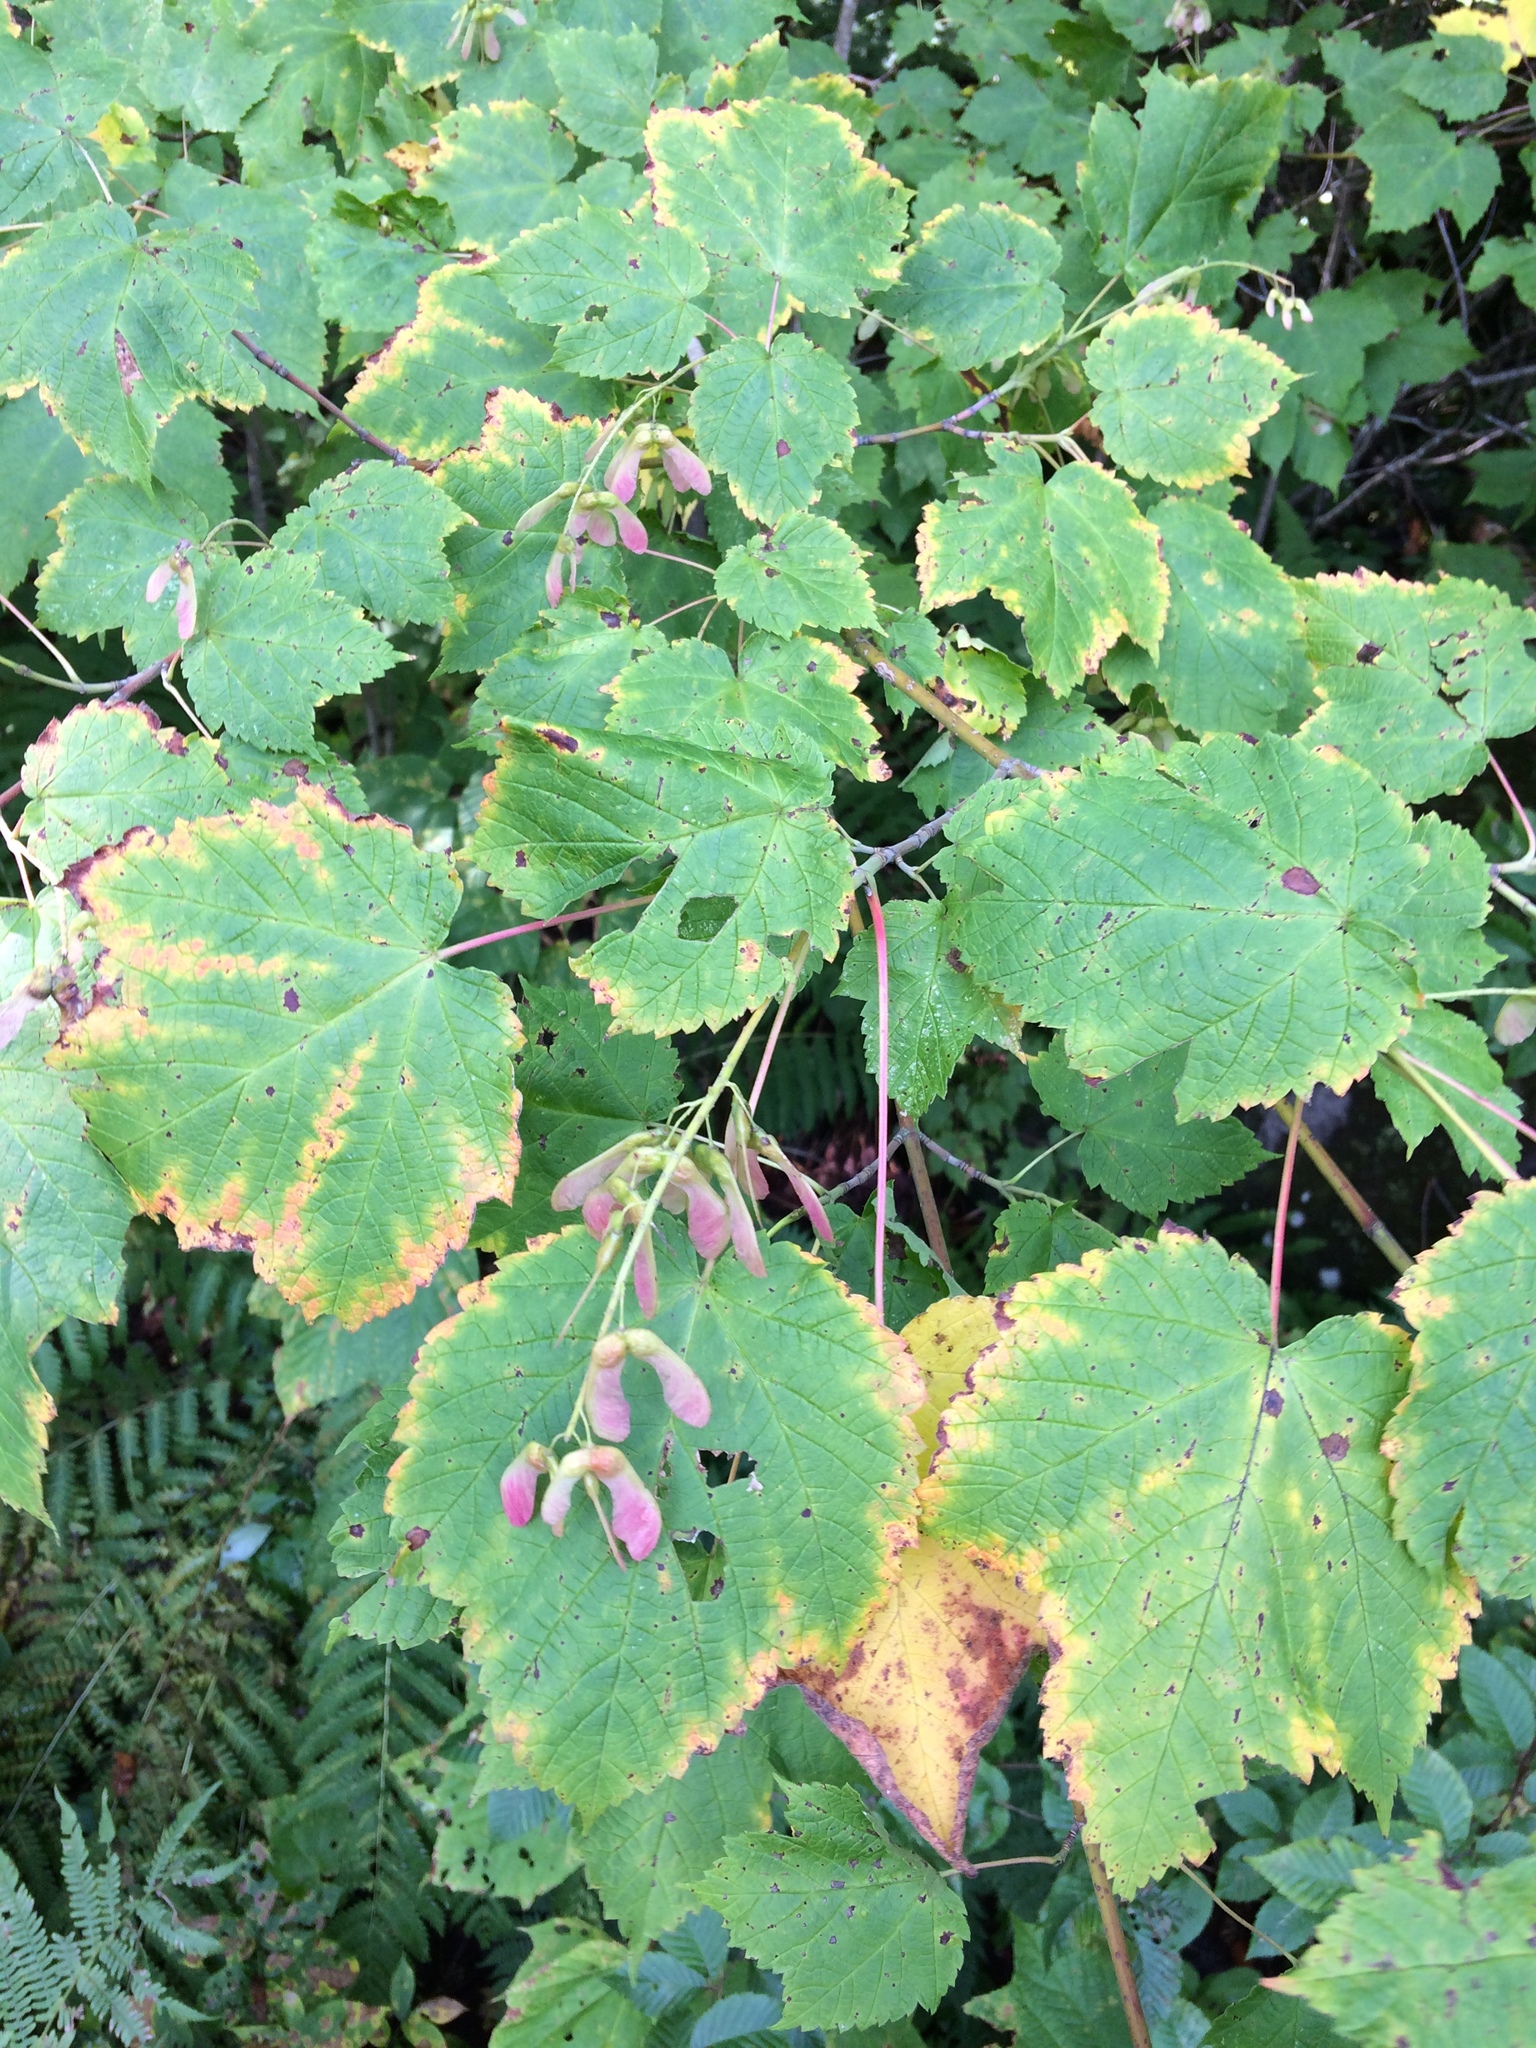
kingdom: Plantae
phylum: Tracheophyta
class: Magnoliopsida
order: Sapindales
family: Sapindaceae
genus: Acer
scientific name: Acer spicatum
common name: Mountain maple
